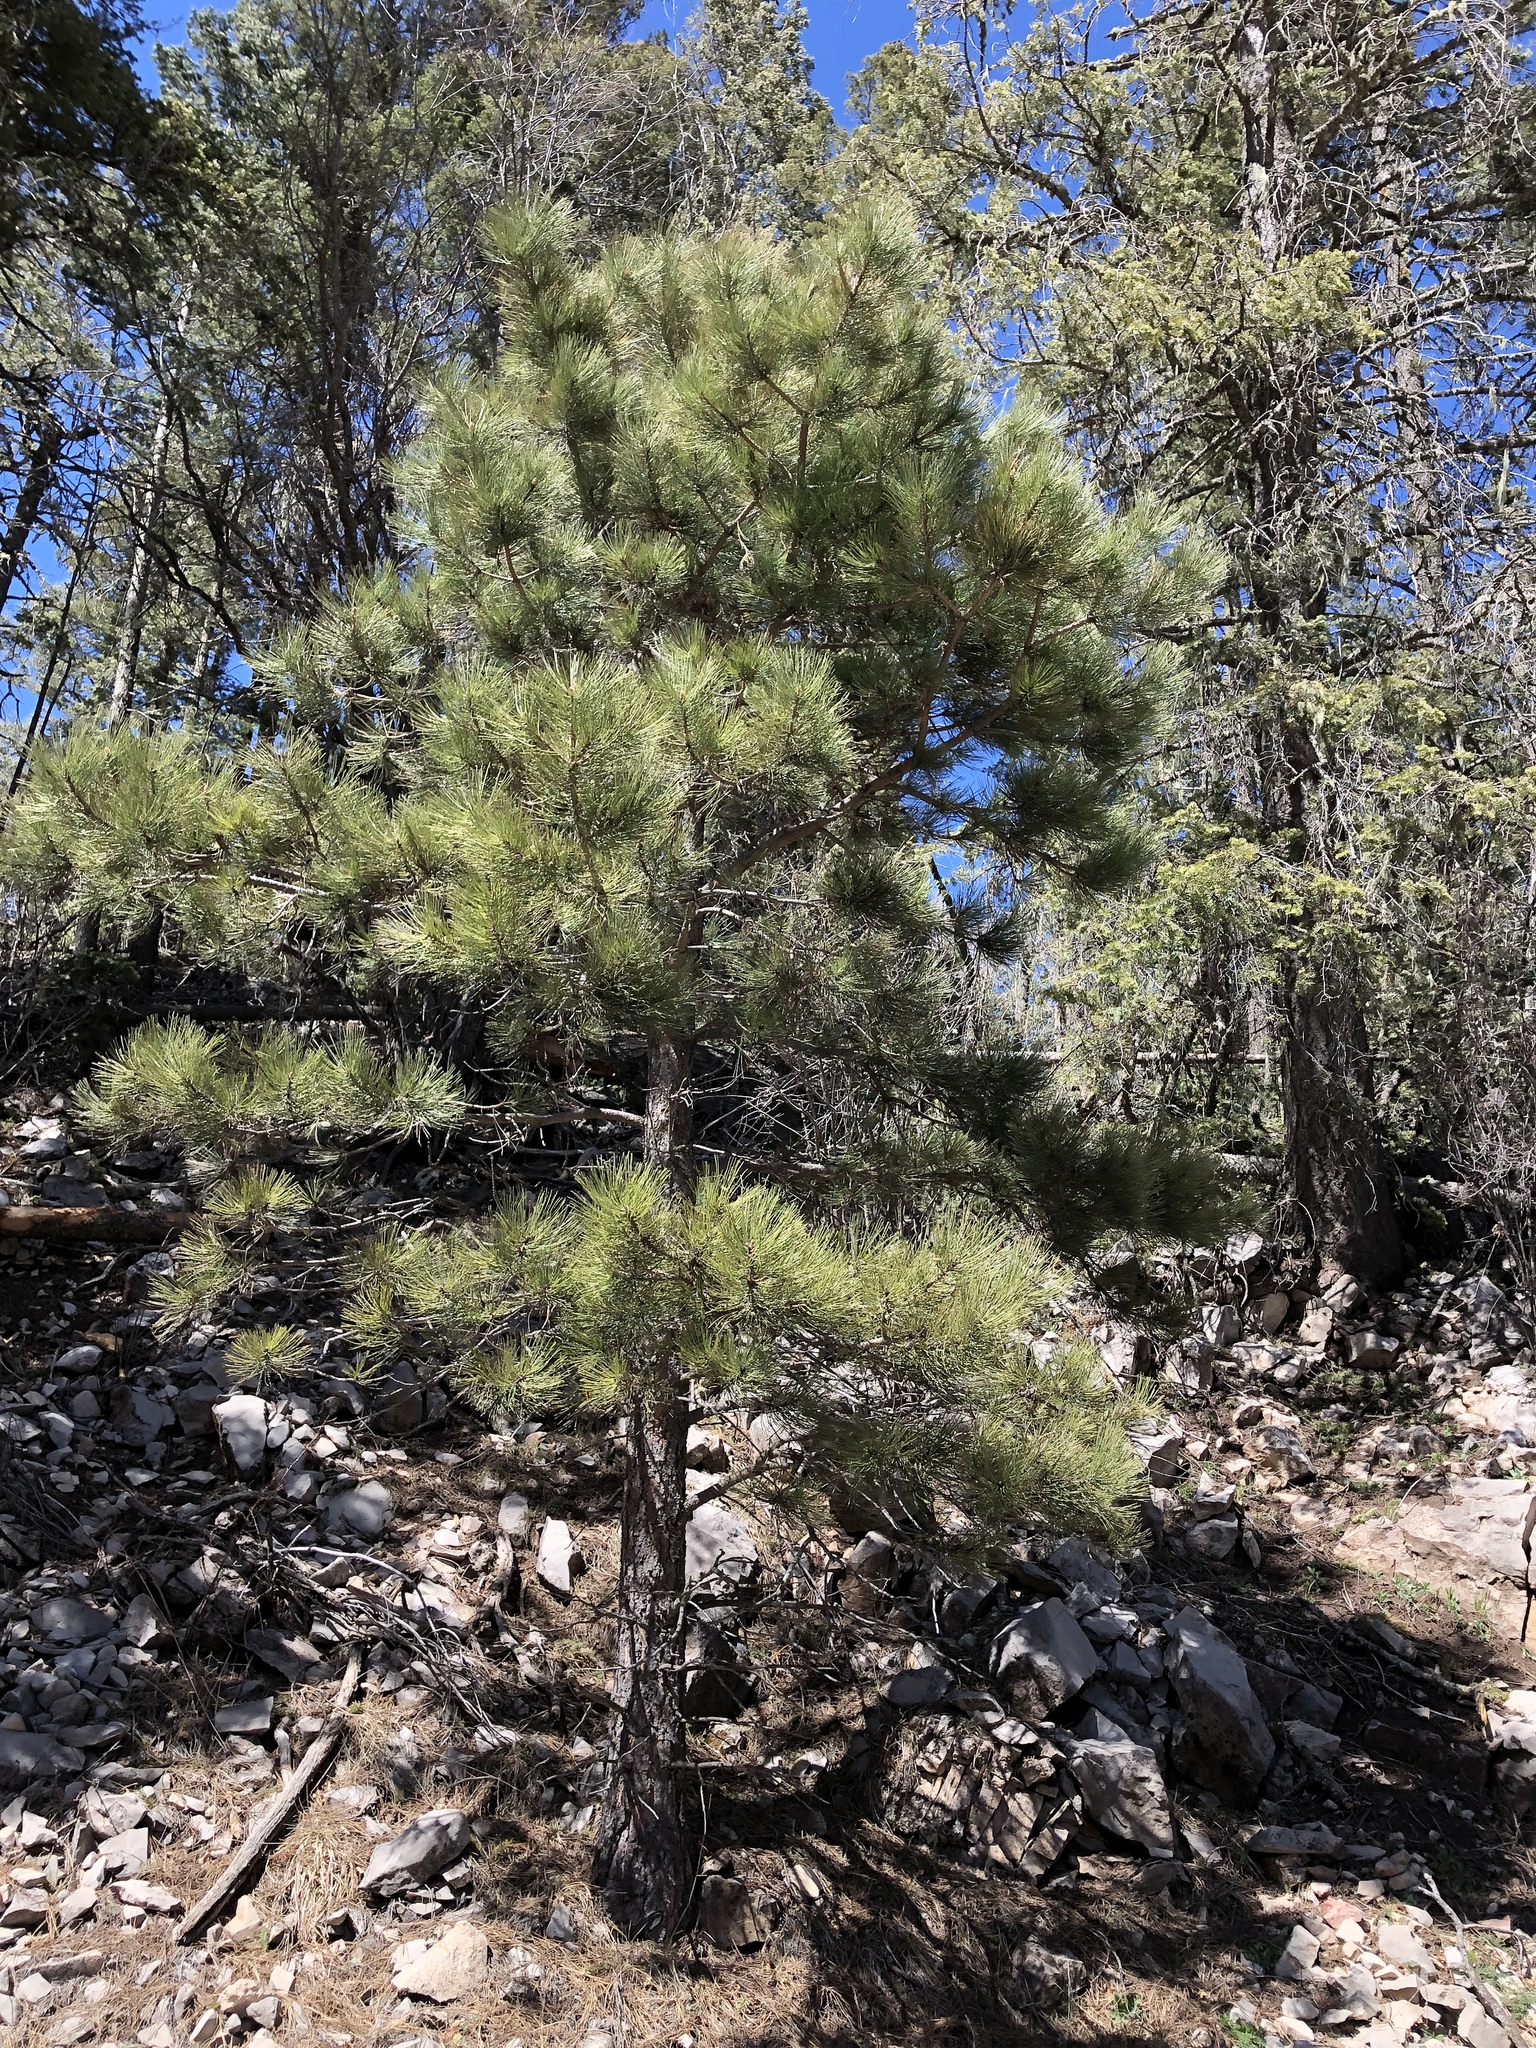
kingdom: Plantae
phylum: Tracheophyta
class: Pinopsida
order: Pinales
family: Pinaceae
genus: Pinus
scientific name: Pinus ponderosa
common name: Western yellow-pine
